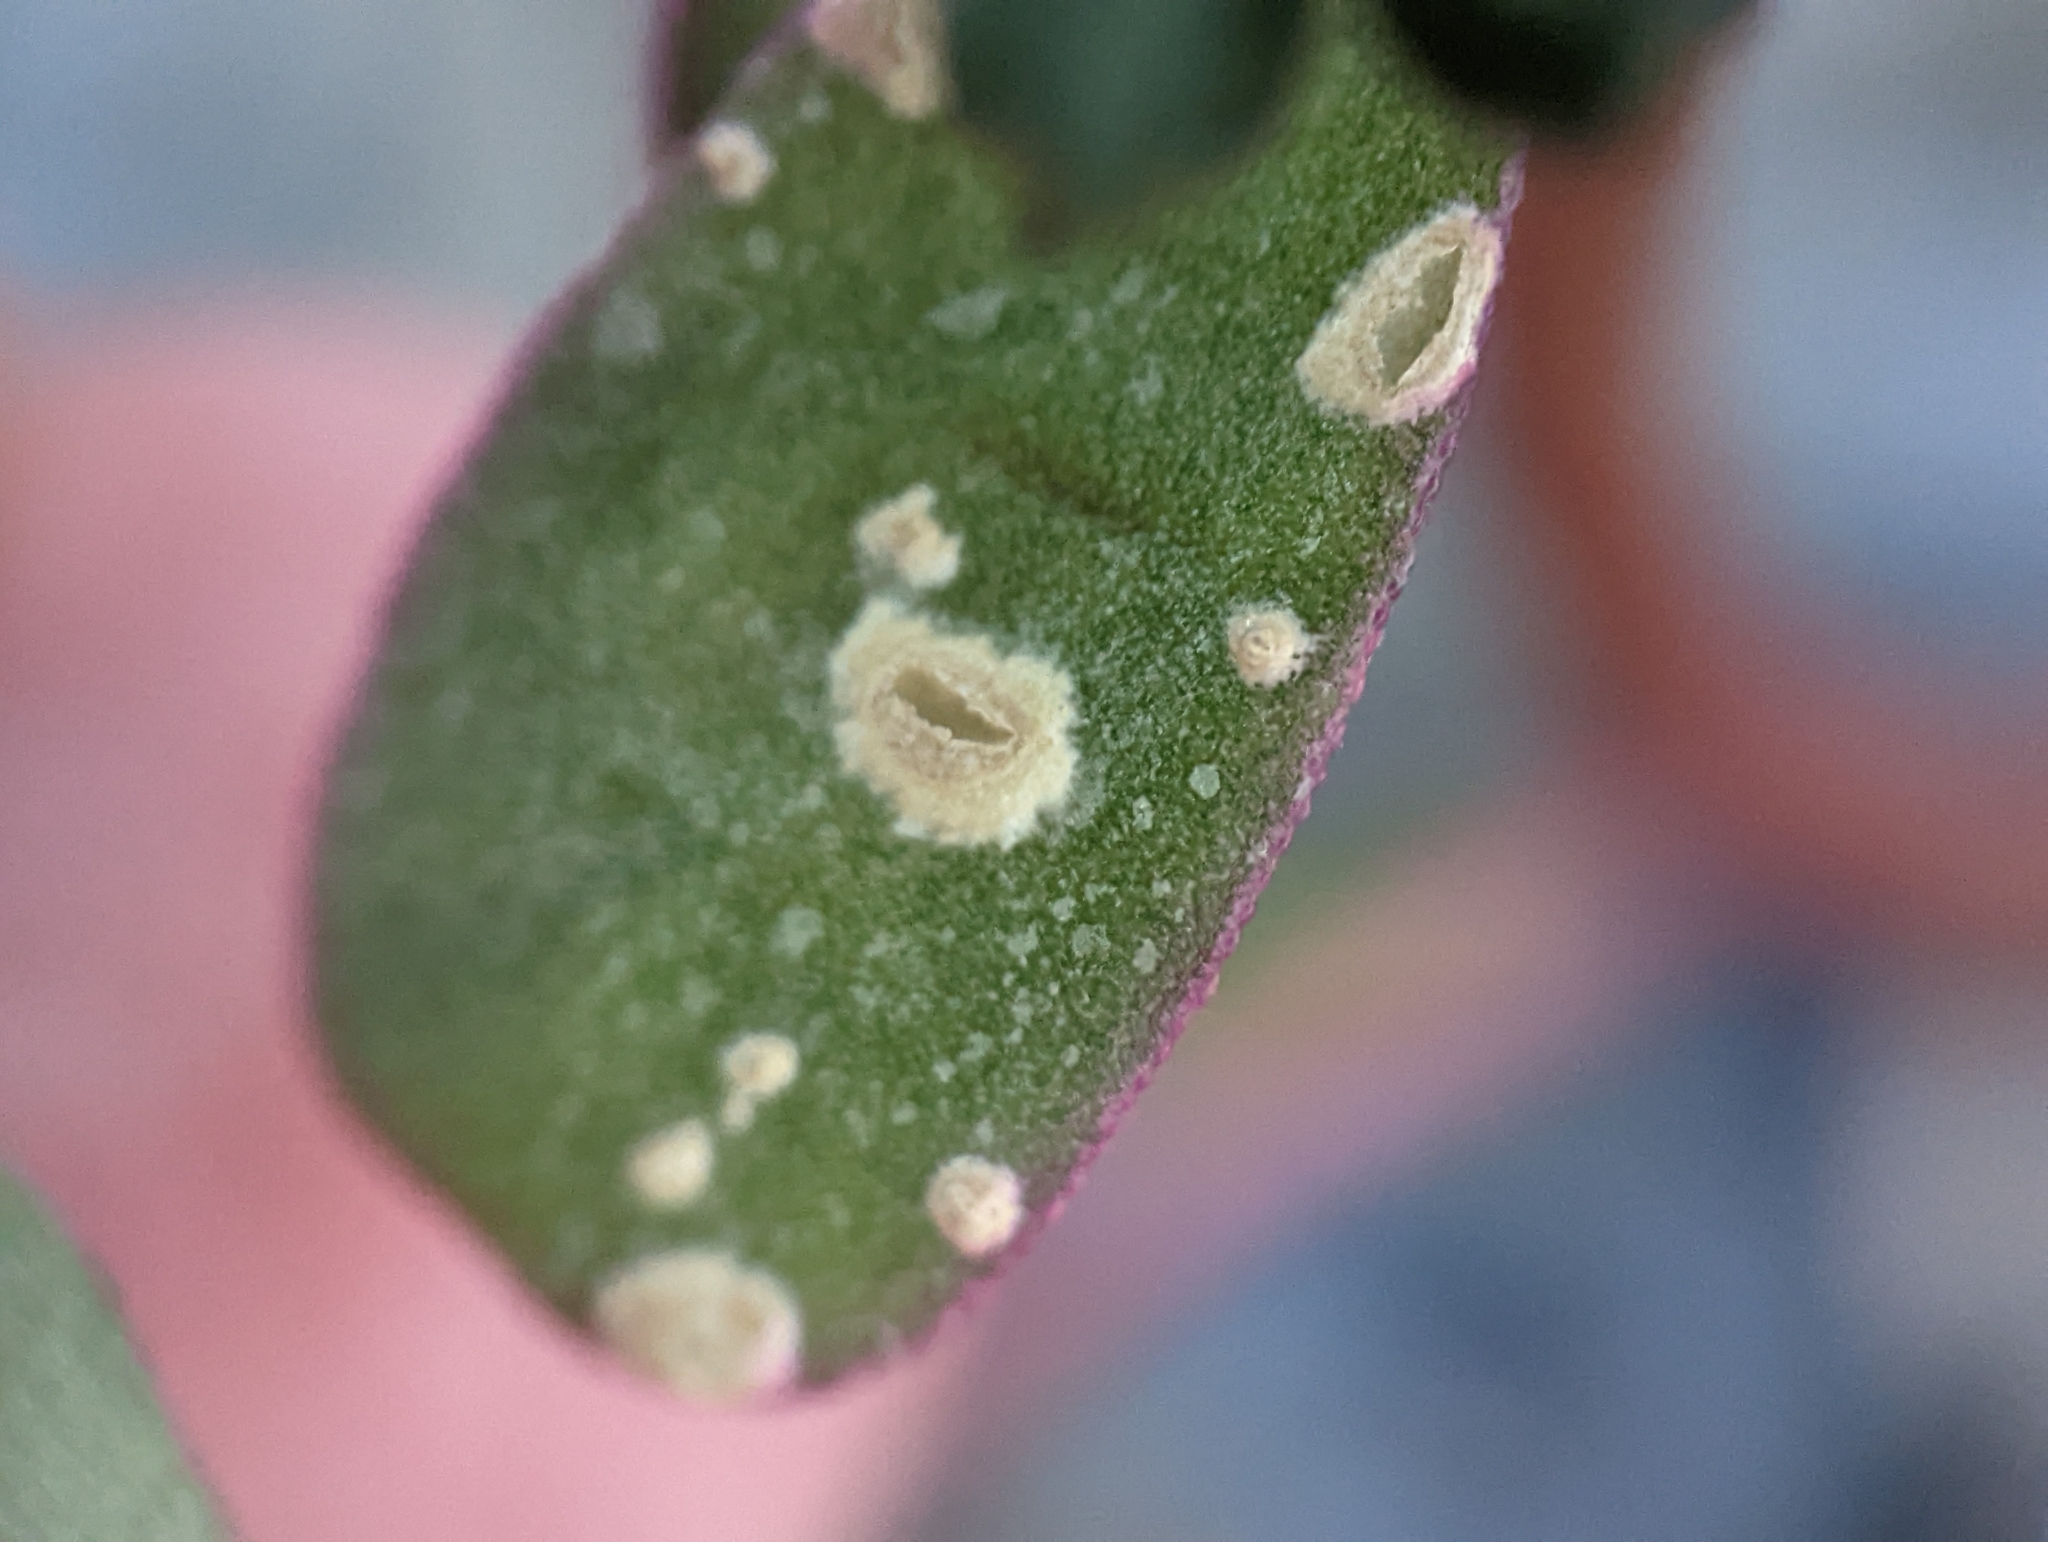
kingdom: Chromista
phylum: Oomycota
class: Peronosporea
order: Albuginales
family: Albuginaceae
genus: Wilsoniana
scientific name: Wilsoniana portulacae
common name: Purslane white rust
